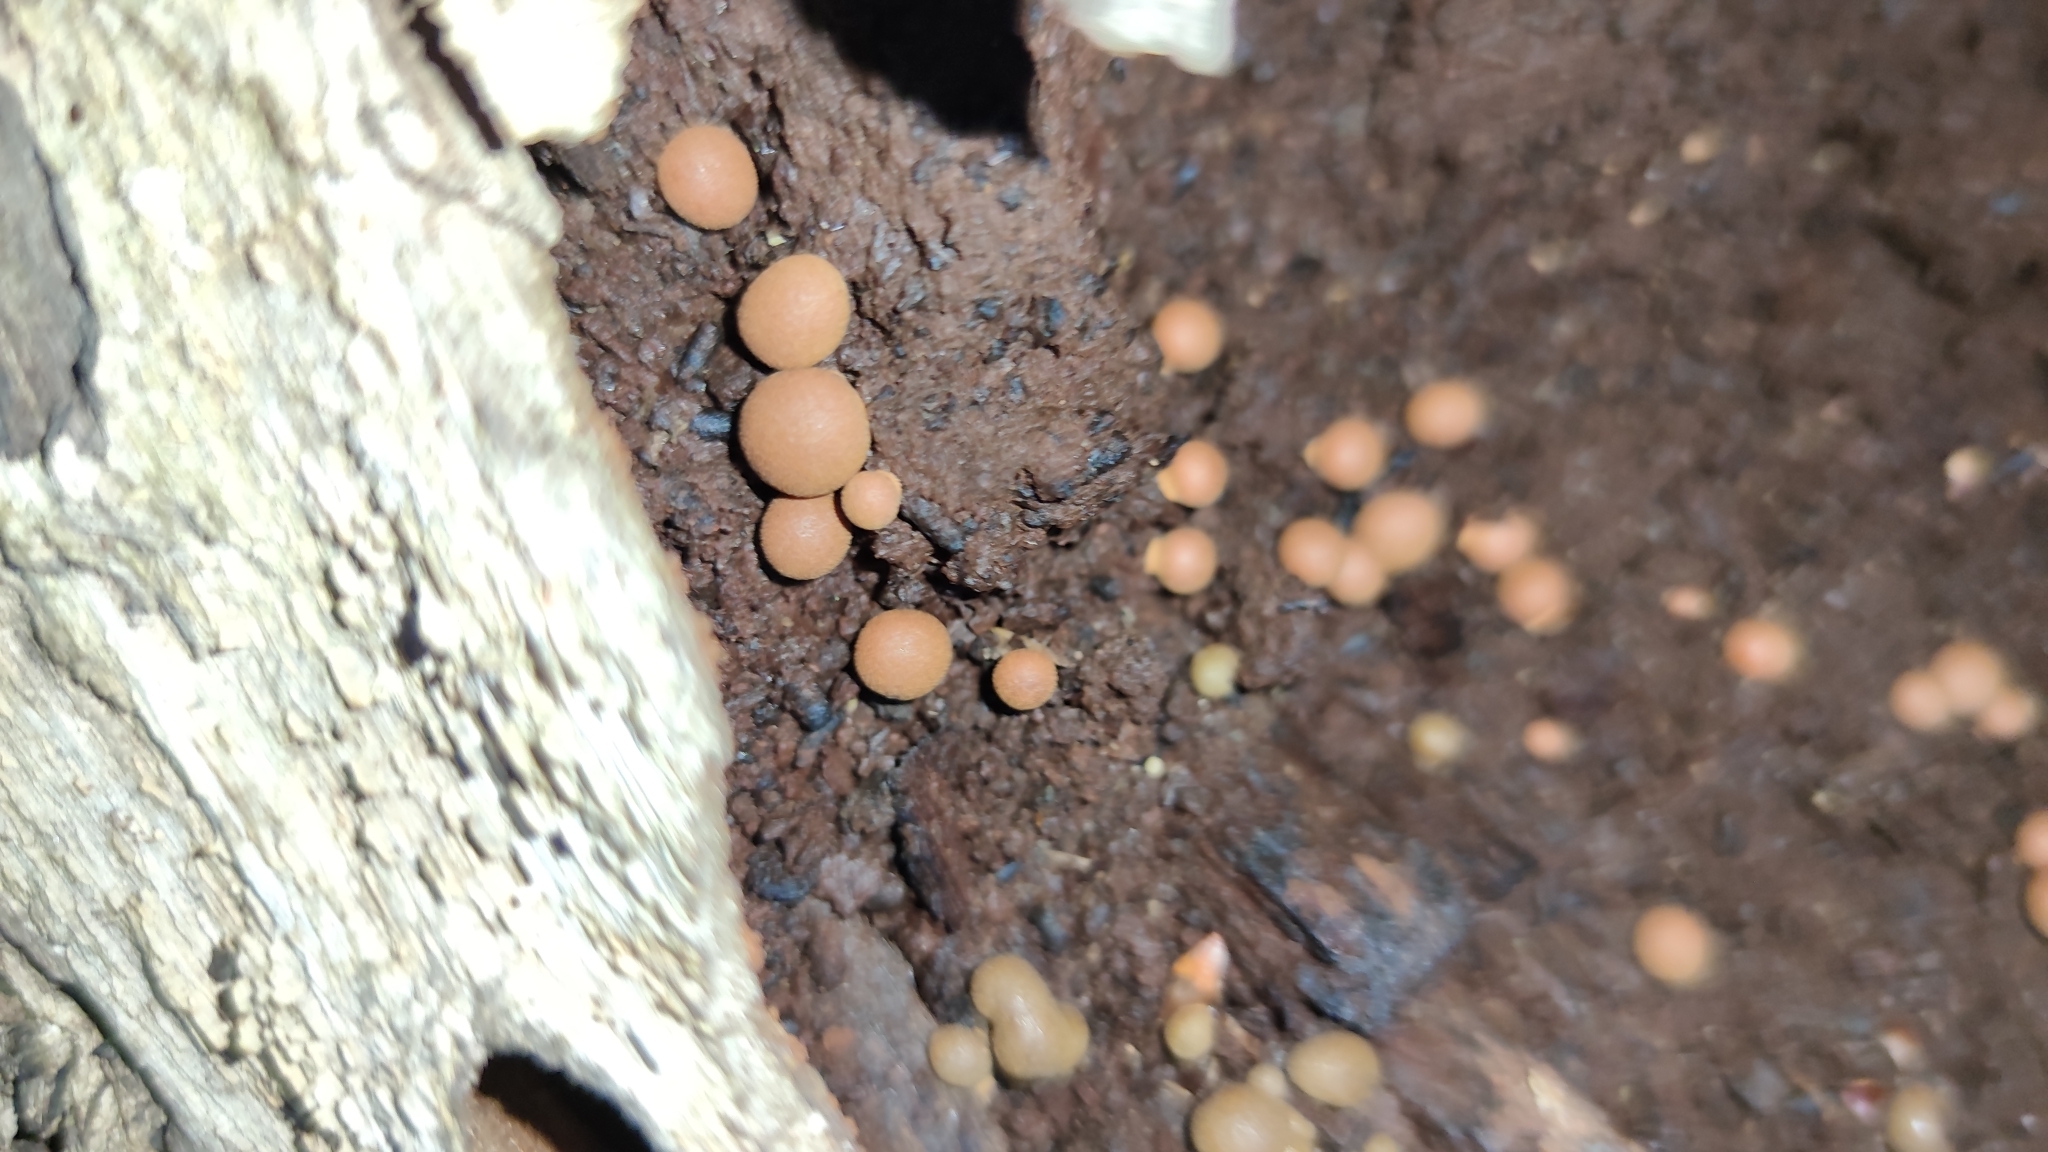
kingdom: Protozoa
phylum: Mycetozoa
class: Myxomycetes
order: Cribrariales
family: Tubiferaceae
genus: Lycogala
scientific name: Lycogala epidendrum
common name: Wolf's milk
